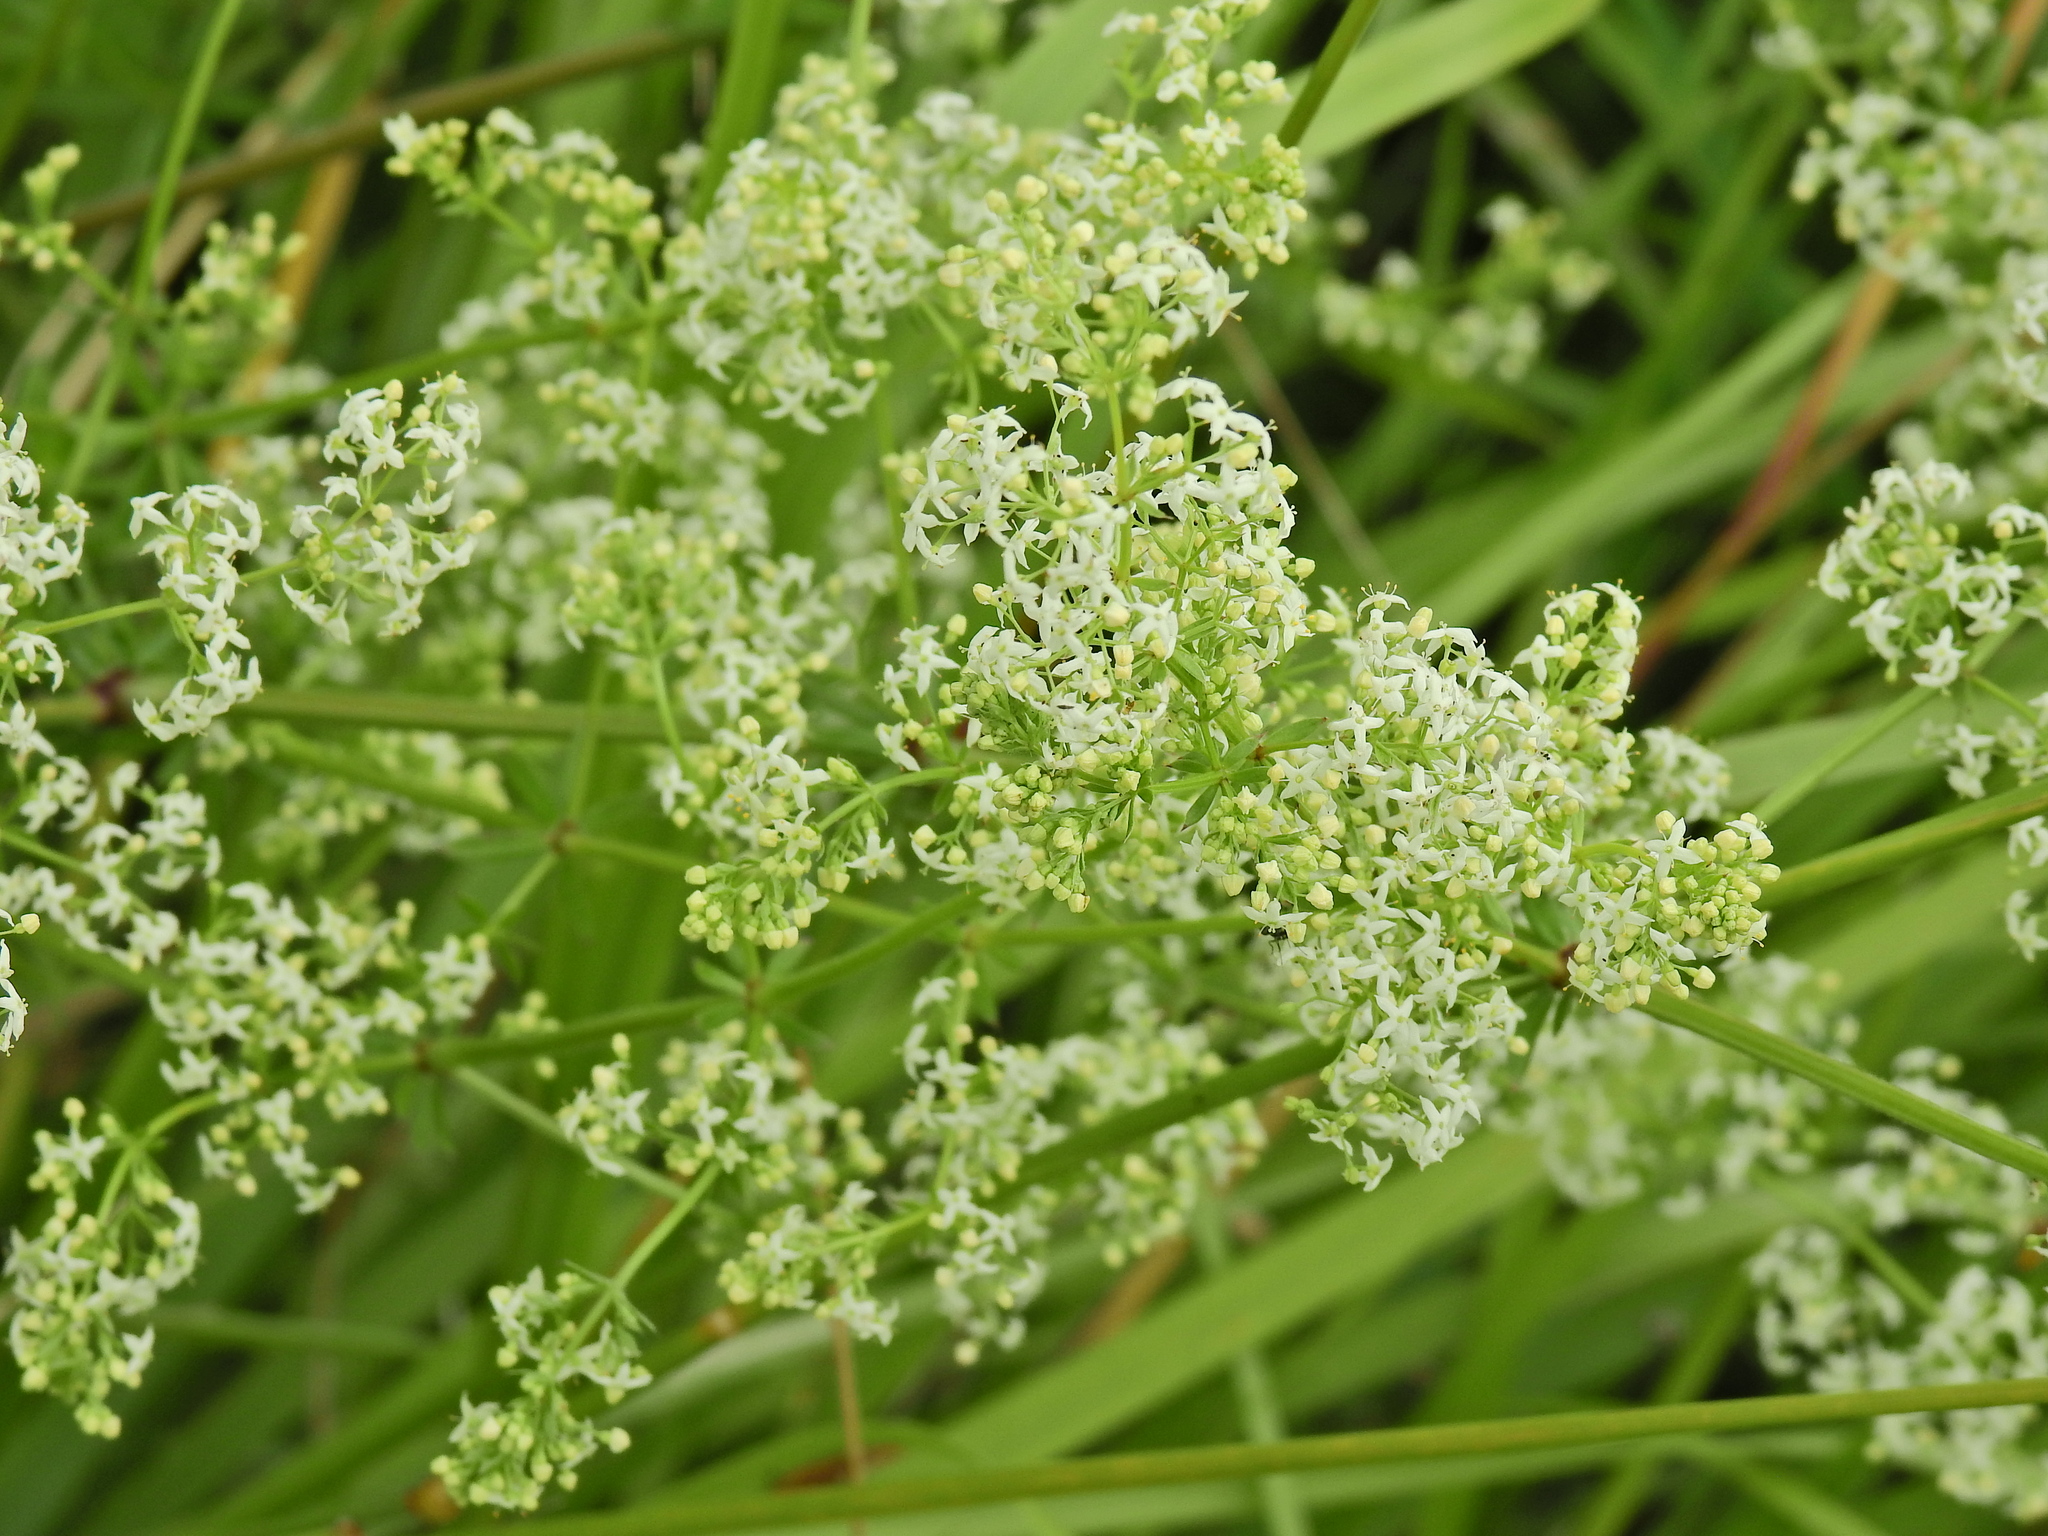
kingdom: Plantae
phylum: Tracheophyta
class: Magnoliopsida
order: Gentianales
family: Rubiaceae
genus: Galium
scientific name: Galium album
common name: White bedstraw
